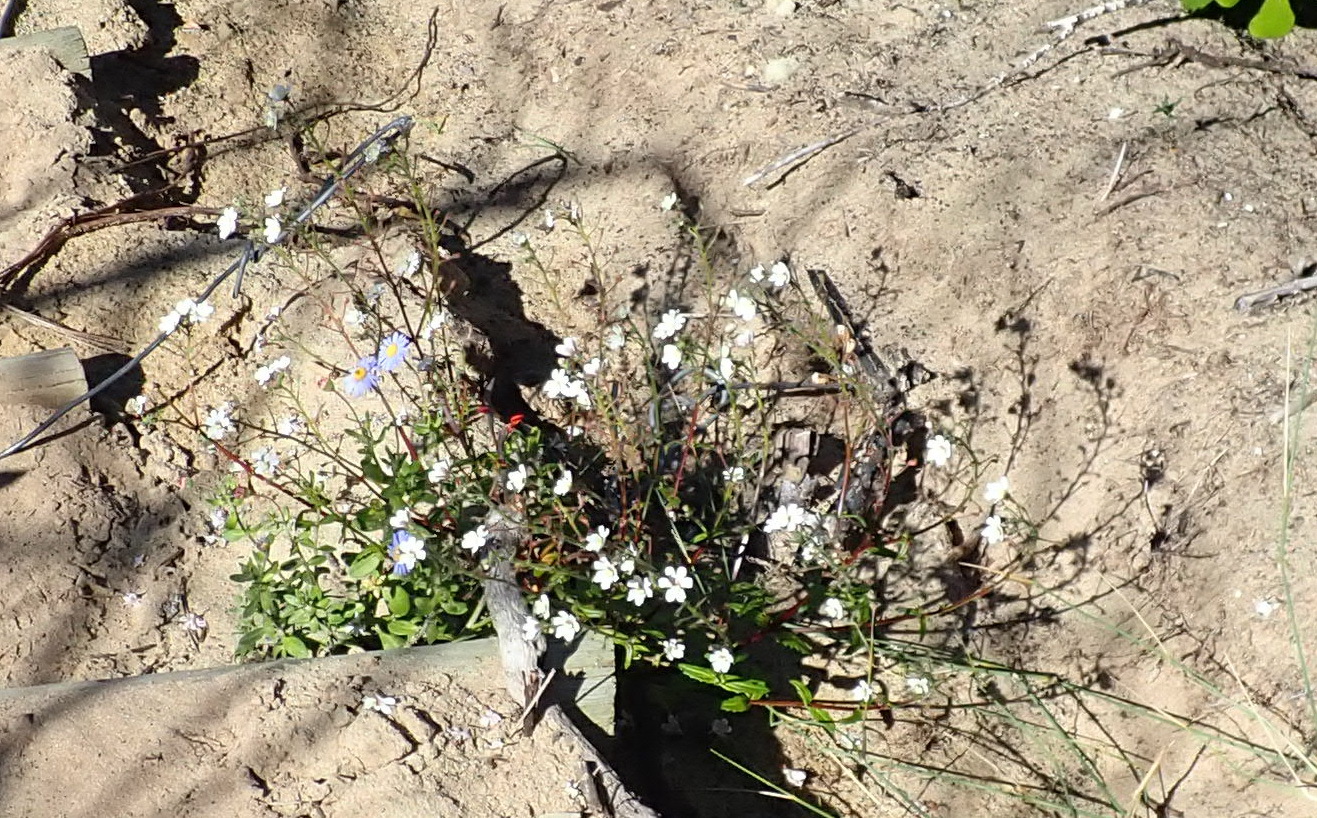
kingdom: Plantae
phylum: Tracheophyta
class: Magnoliopsida
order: Lamiales
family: Scrophulariaceae
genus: Nemesia
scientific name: Nemesia bicornis
